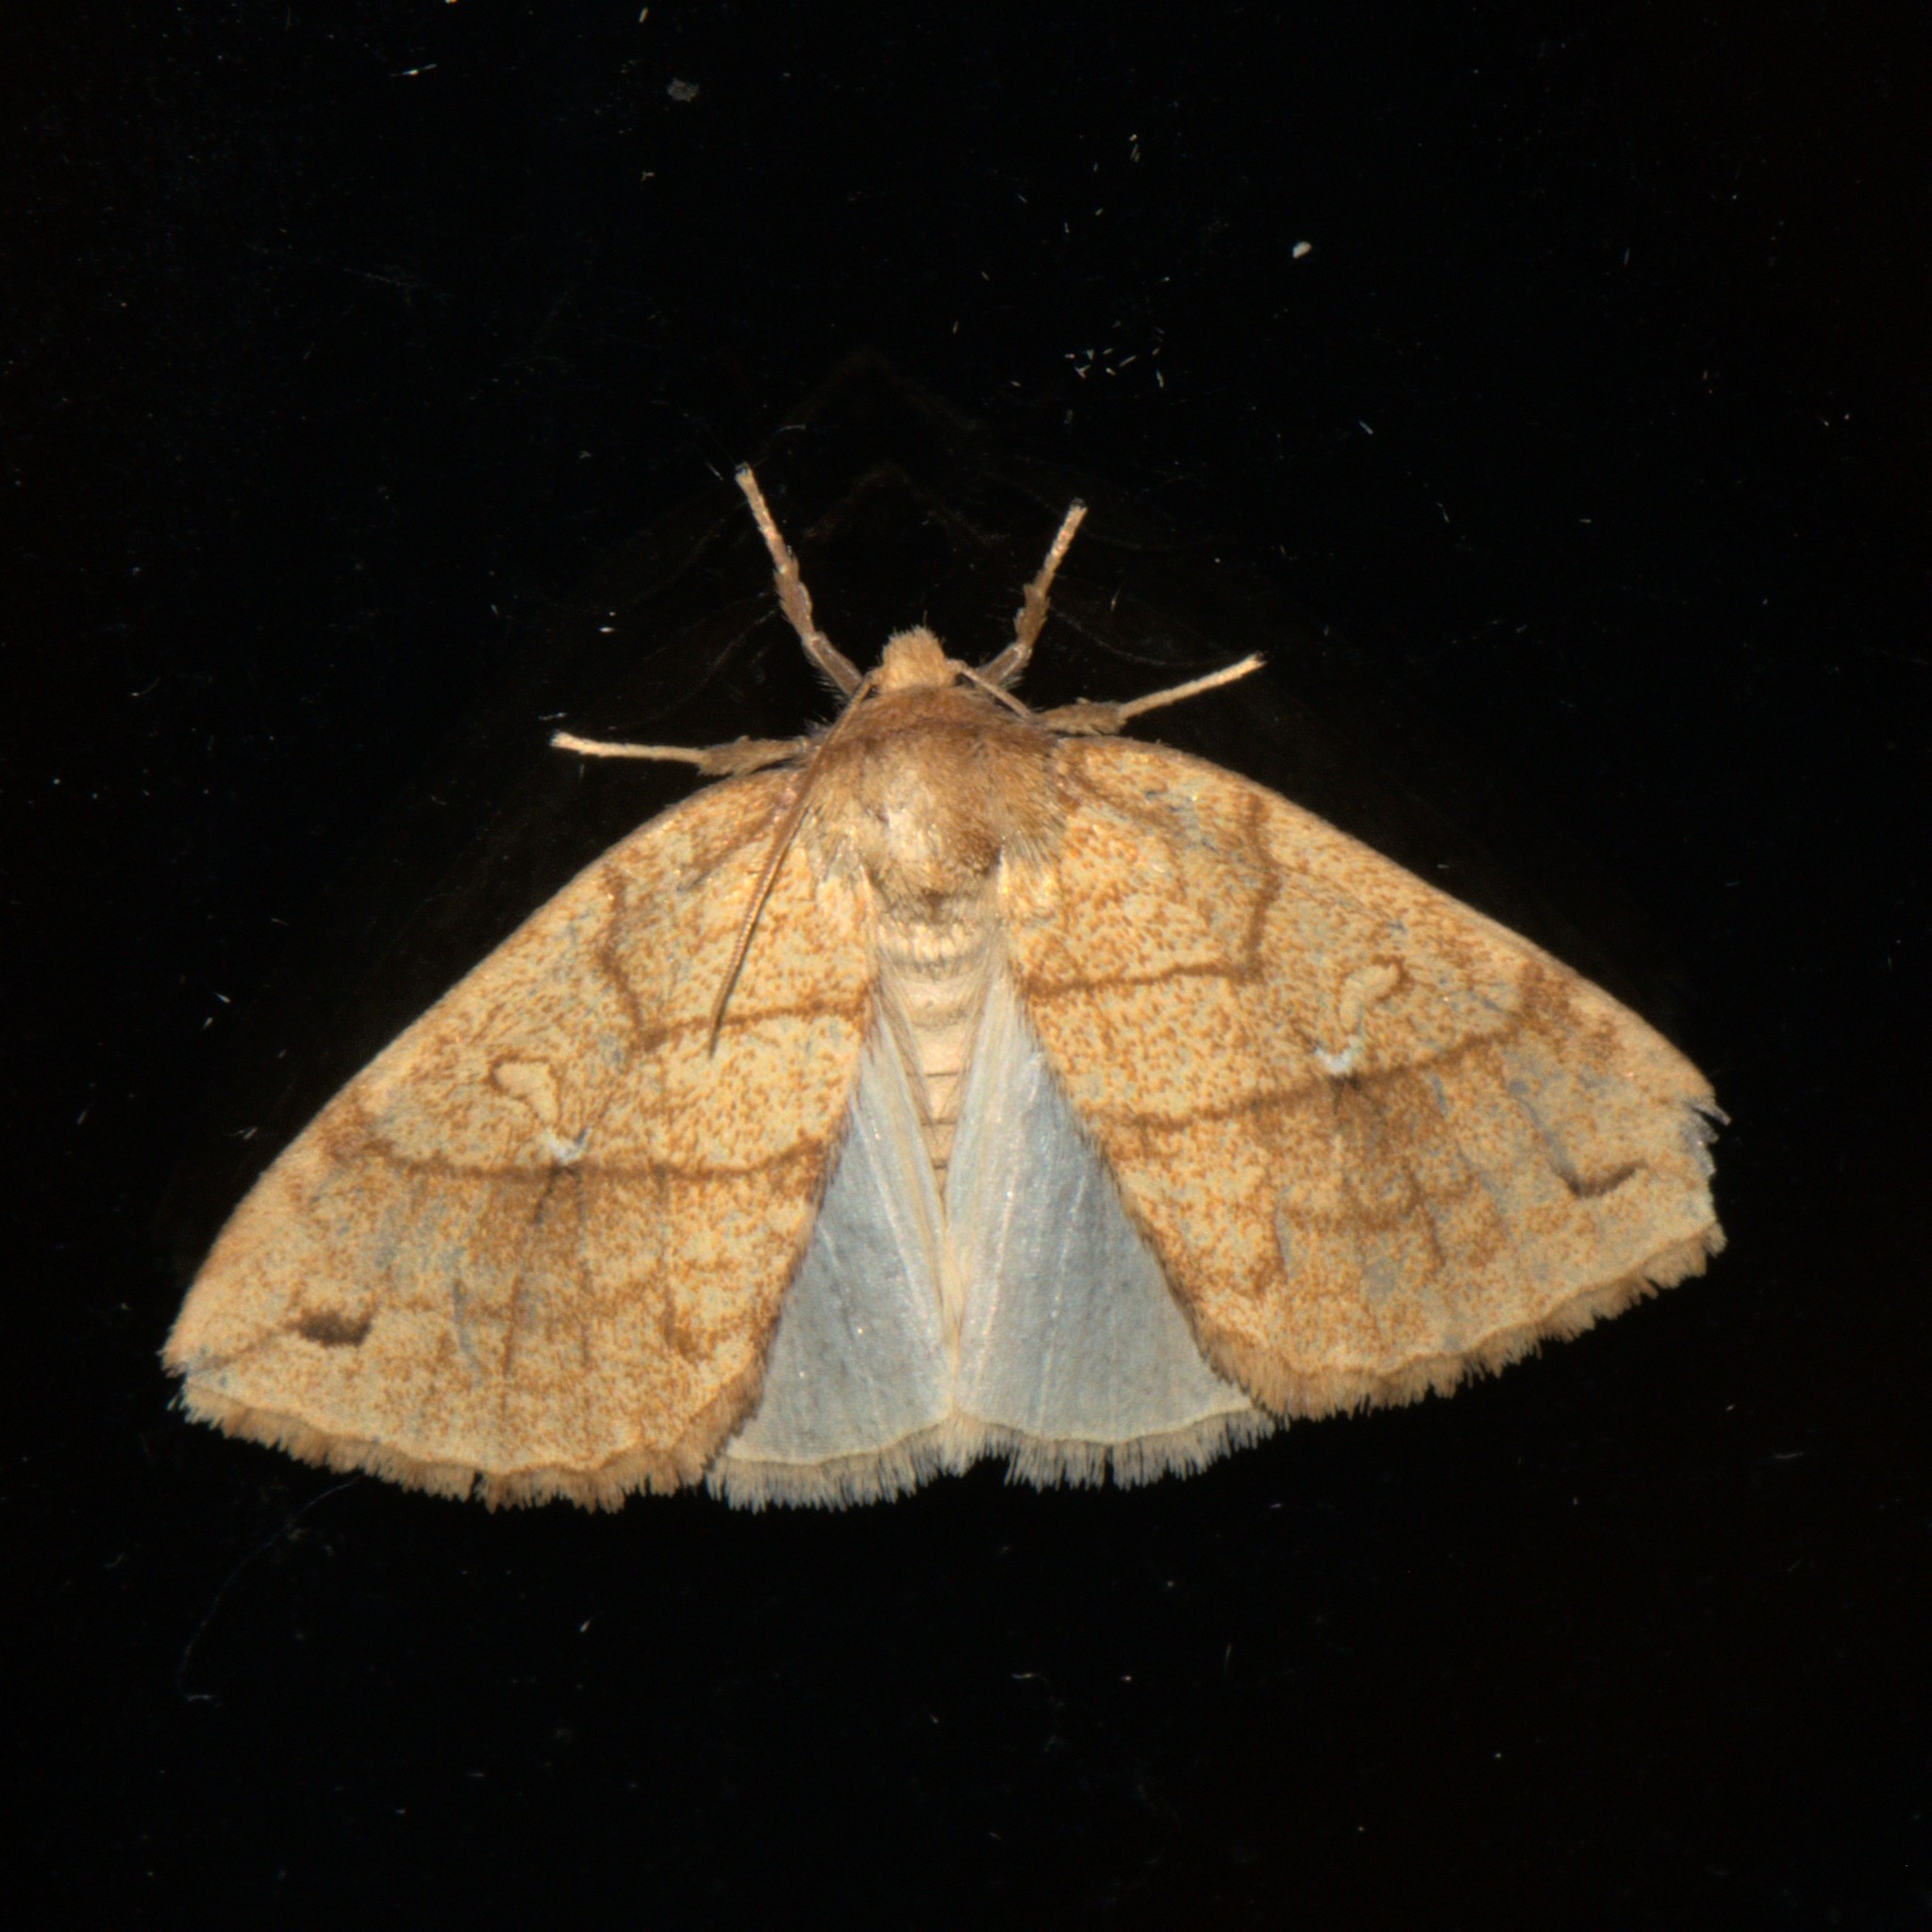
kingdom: Animalia
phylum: Arthropoda
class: Insecta
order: Lepidoptera
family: Noctuidae
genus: Xanthia
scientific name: Xanthia rectilineata
